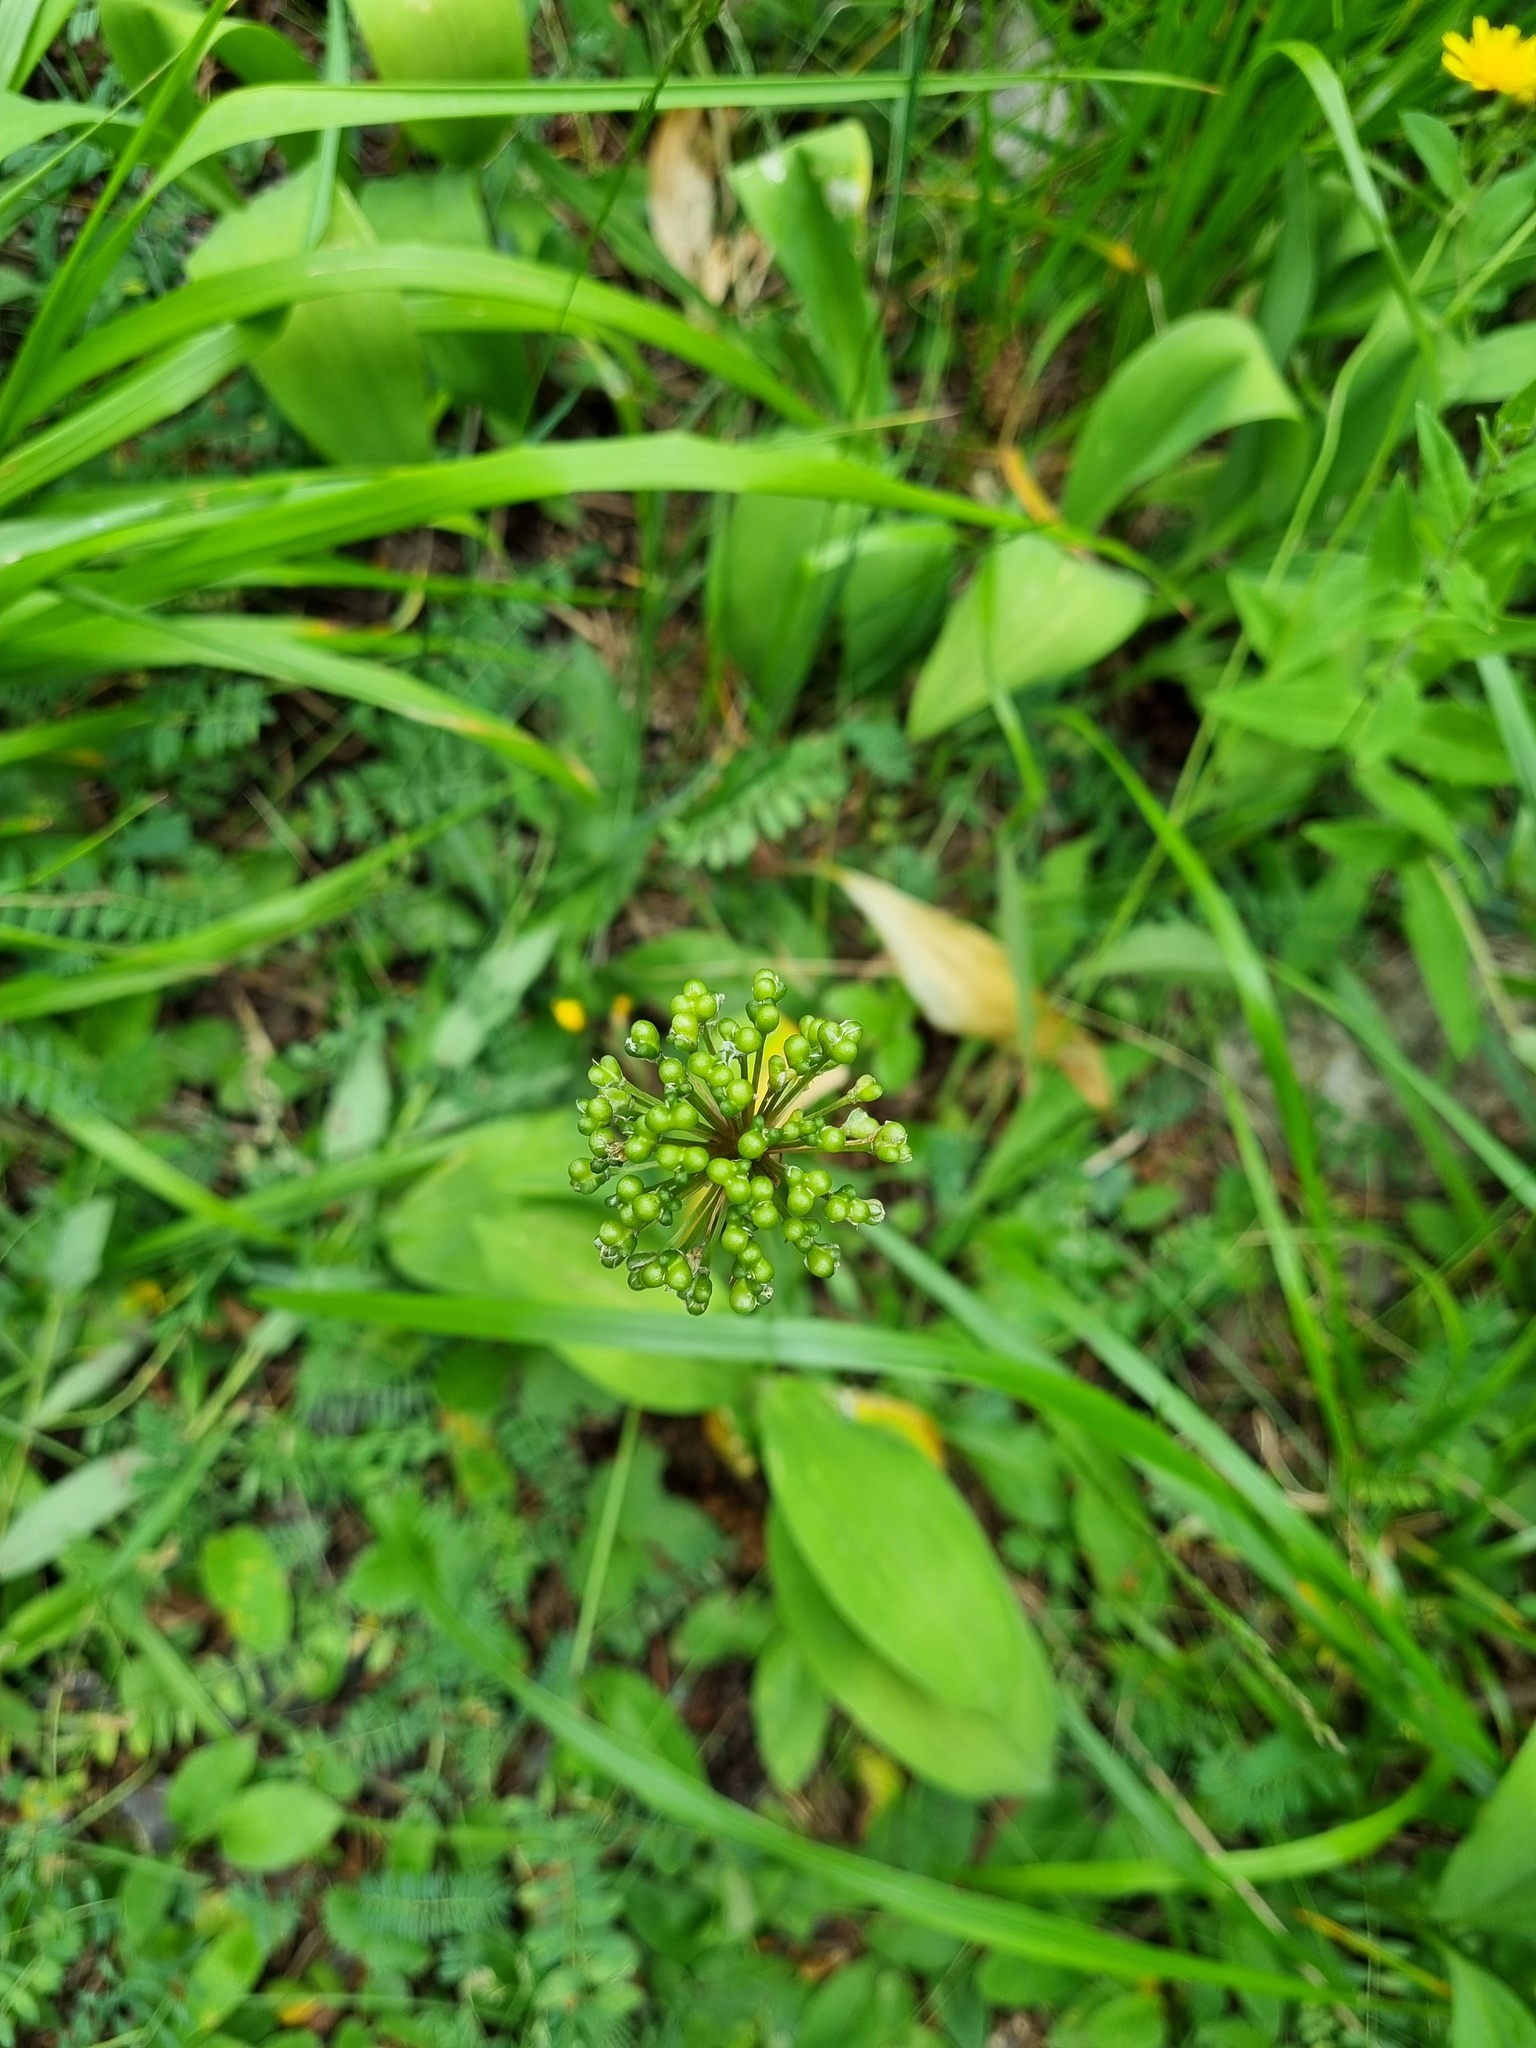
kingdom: Plantae
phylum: Tracheophyta
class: Liliopsida
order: Asparagales
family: Amaryllidaceae
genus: Allium
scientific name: Allium victorialis
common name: Alpine leek
